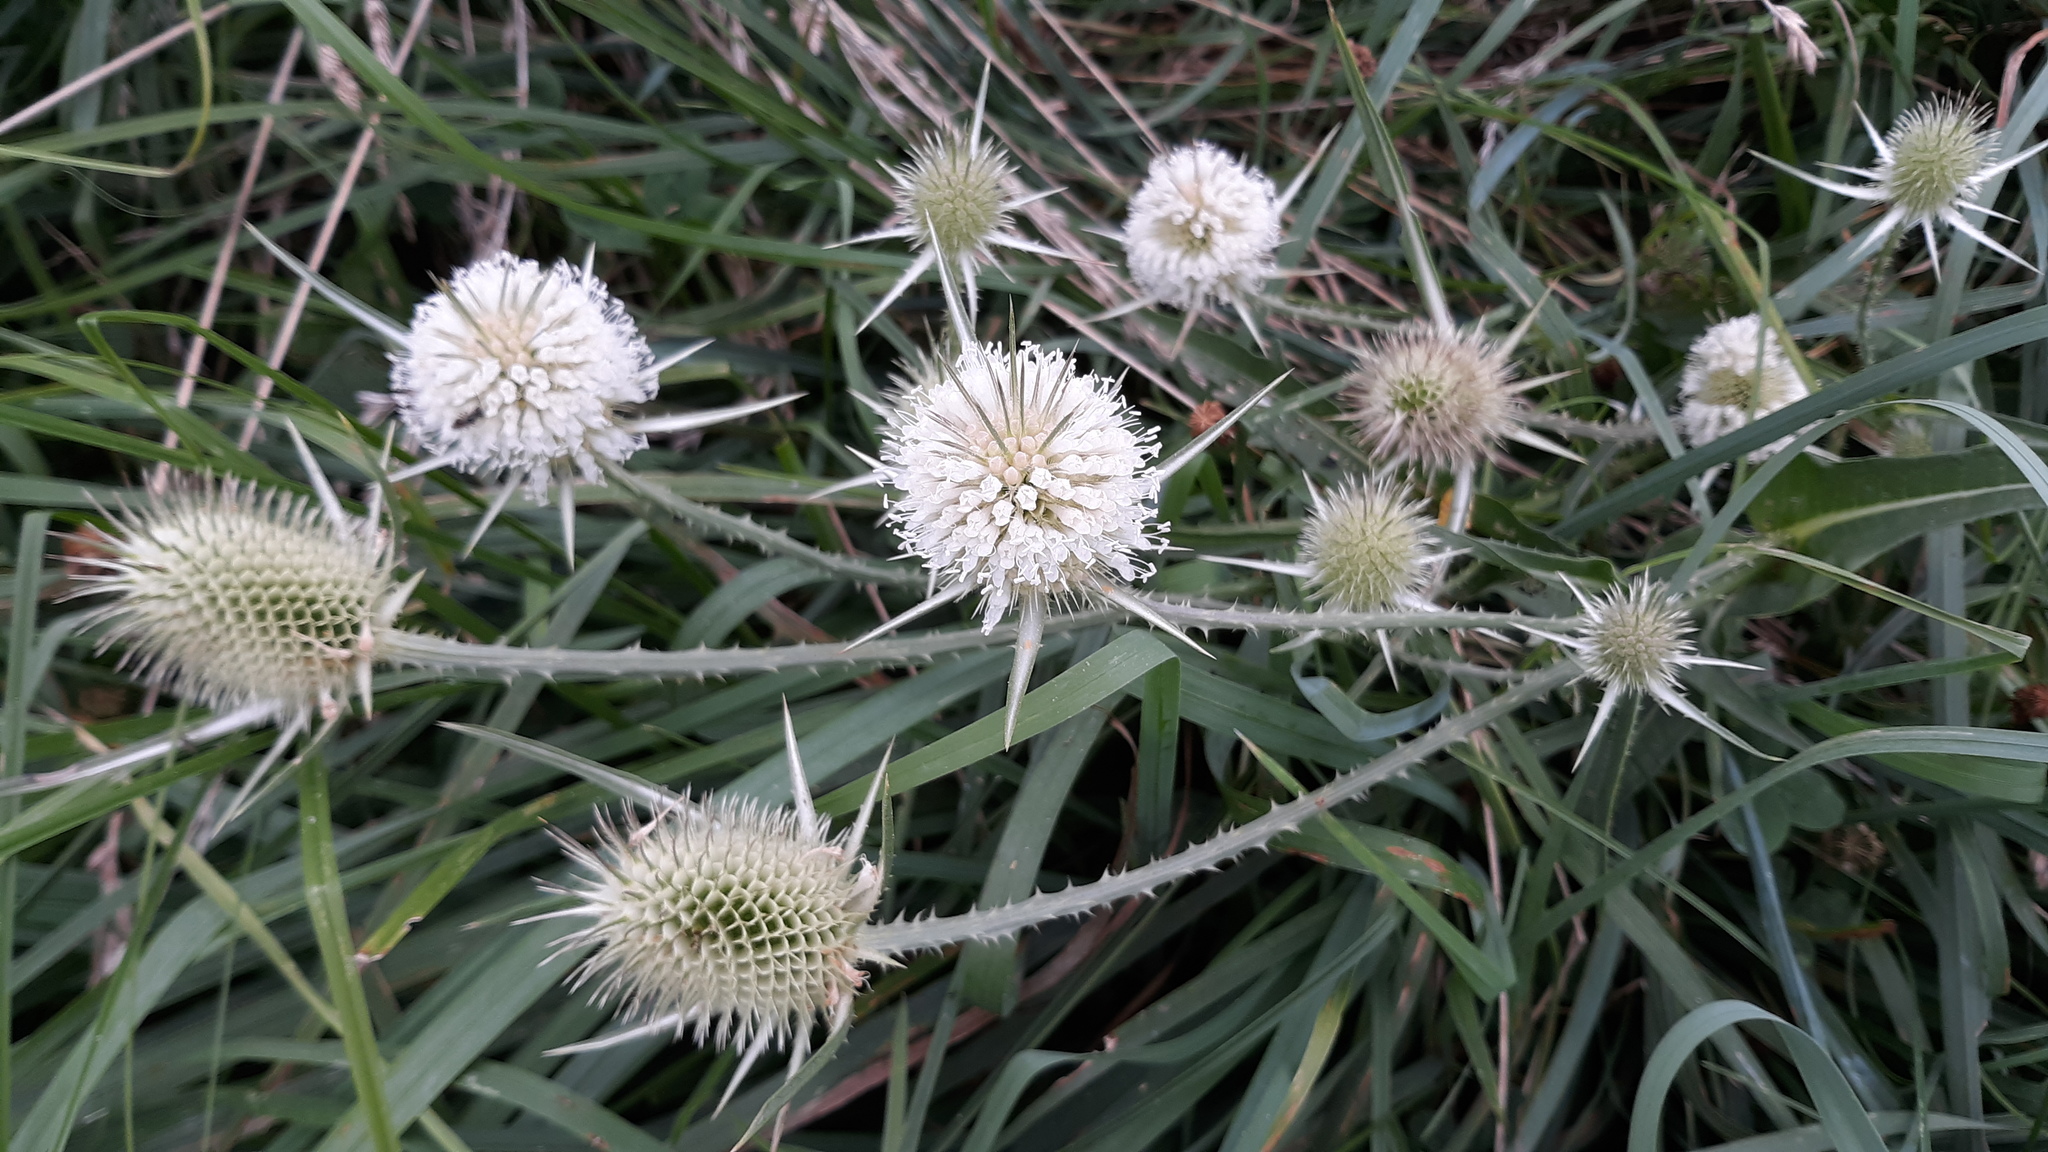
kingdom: Plantae
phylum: Tracheophyta
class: Magnoliopsida
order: Dipsacales
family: Caprifoliaceae
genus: Dipsacus
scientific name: Dipsacus laciniatus
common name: Cut-leaved teasel
